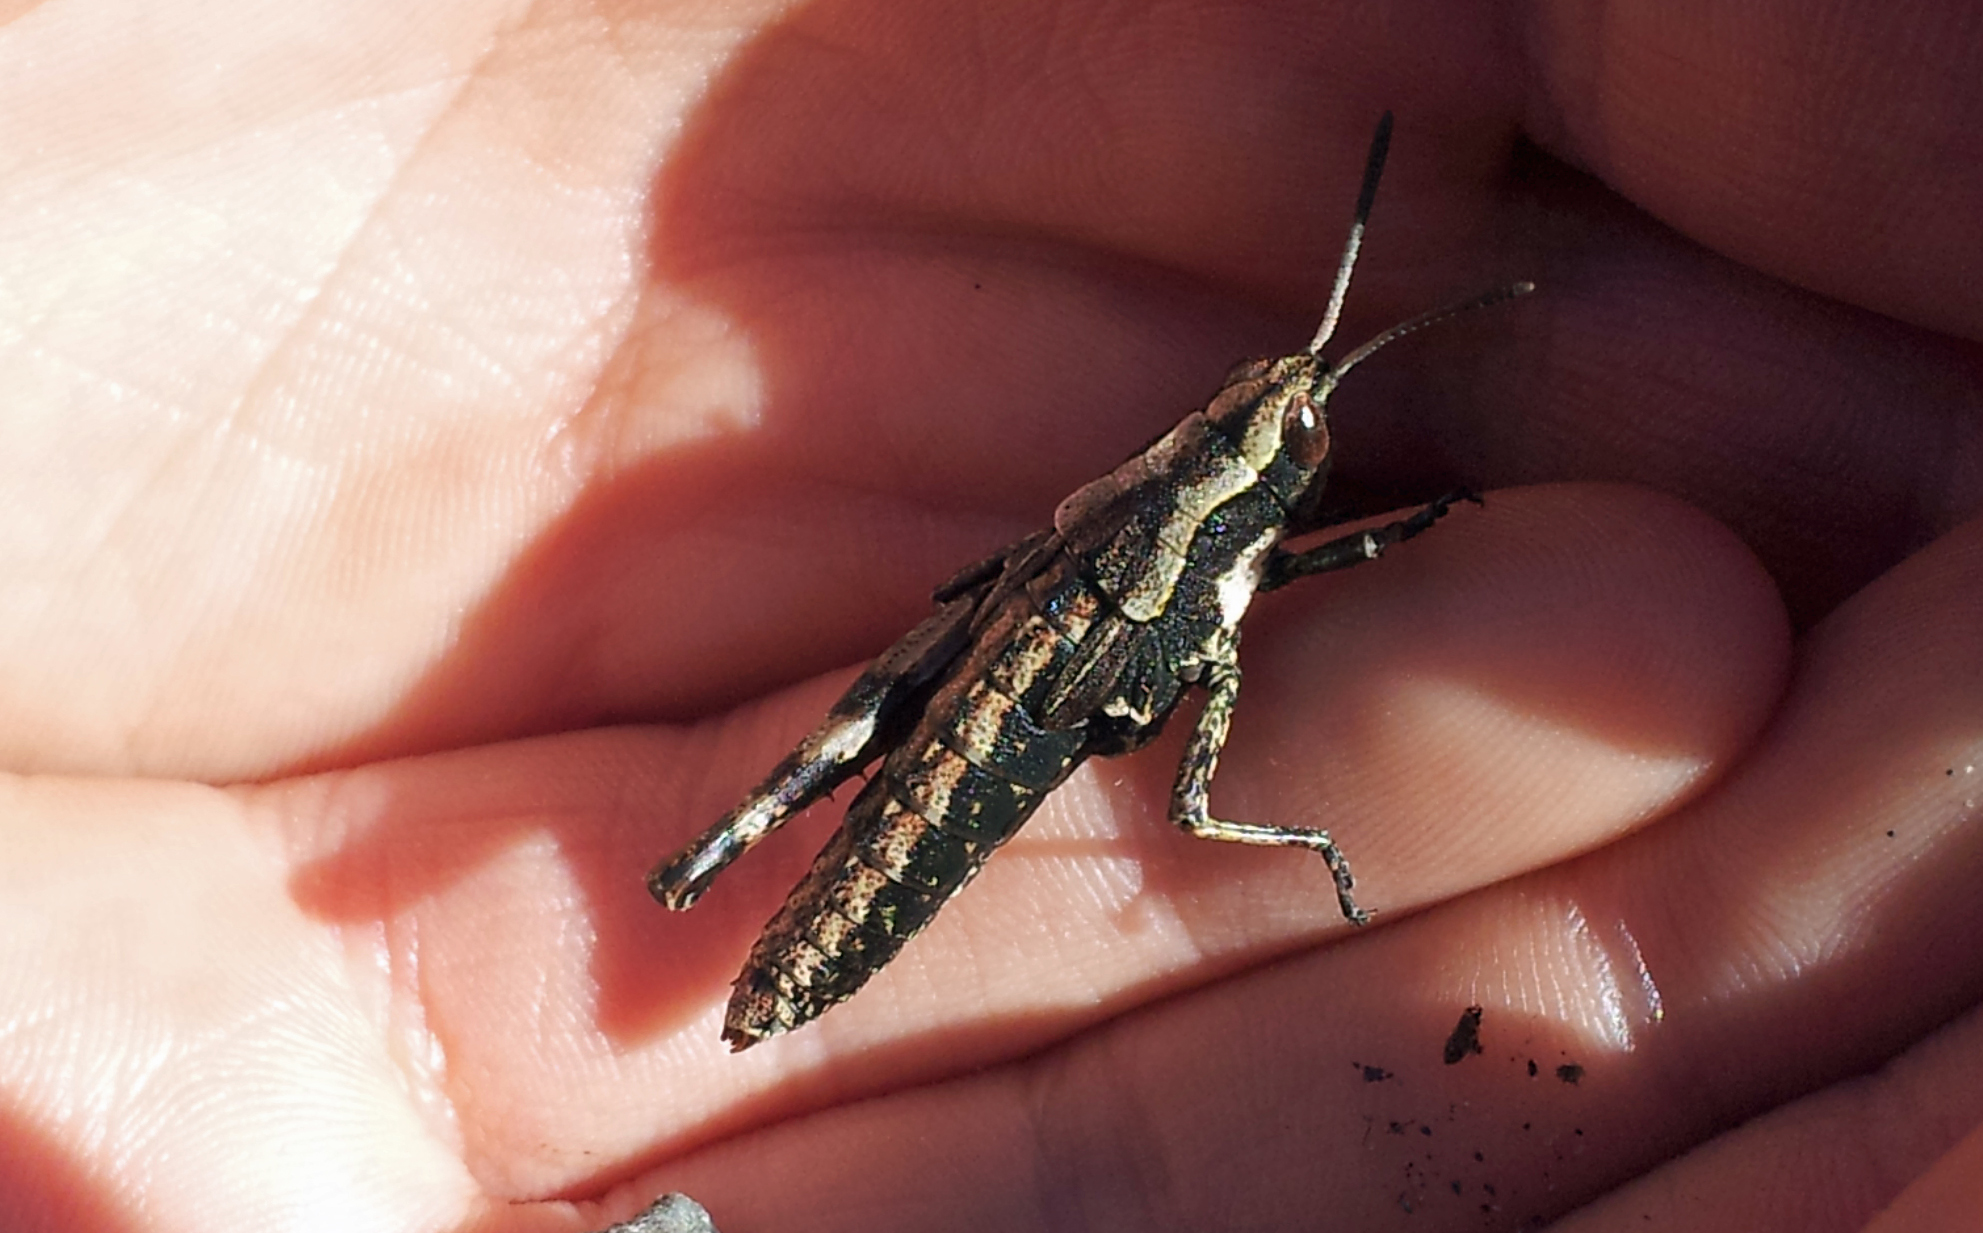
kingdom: Animalia
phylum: Arthropoda
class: Insecta
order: Orthoptera
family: Acrididae
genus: Sigaus
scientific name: Sigaus piliferus
